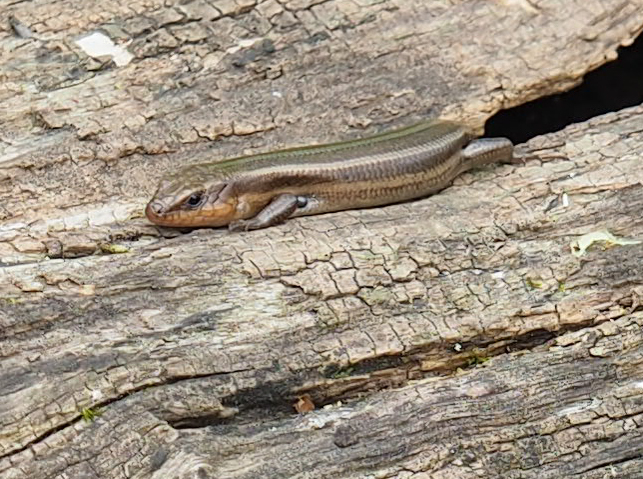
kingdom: Animalia
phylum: Chordata
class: Squamata
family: Scincidae
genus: Plestiodon
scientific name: Plestiodon fasciatus
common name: Five-lined skink
